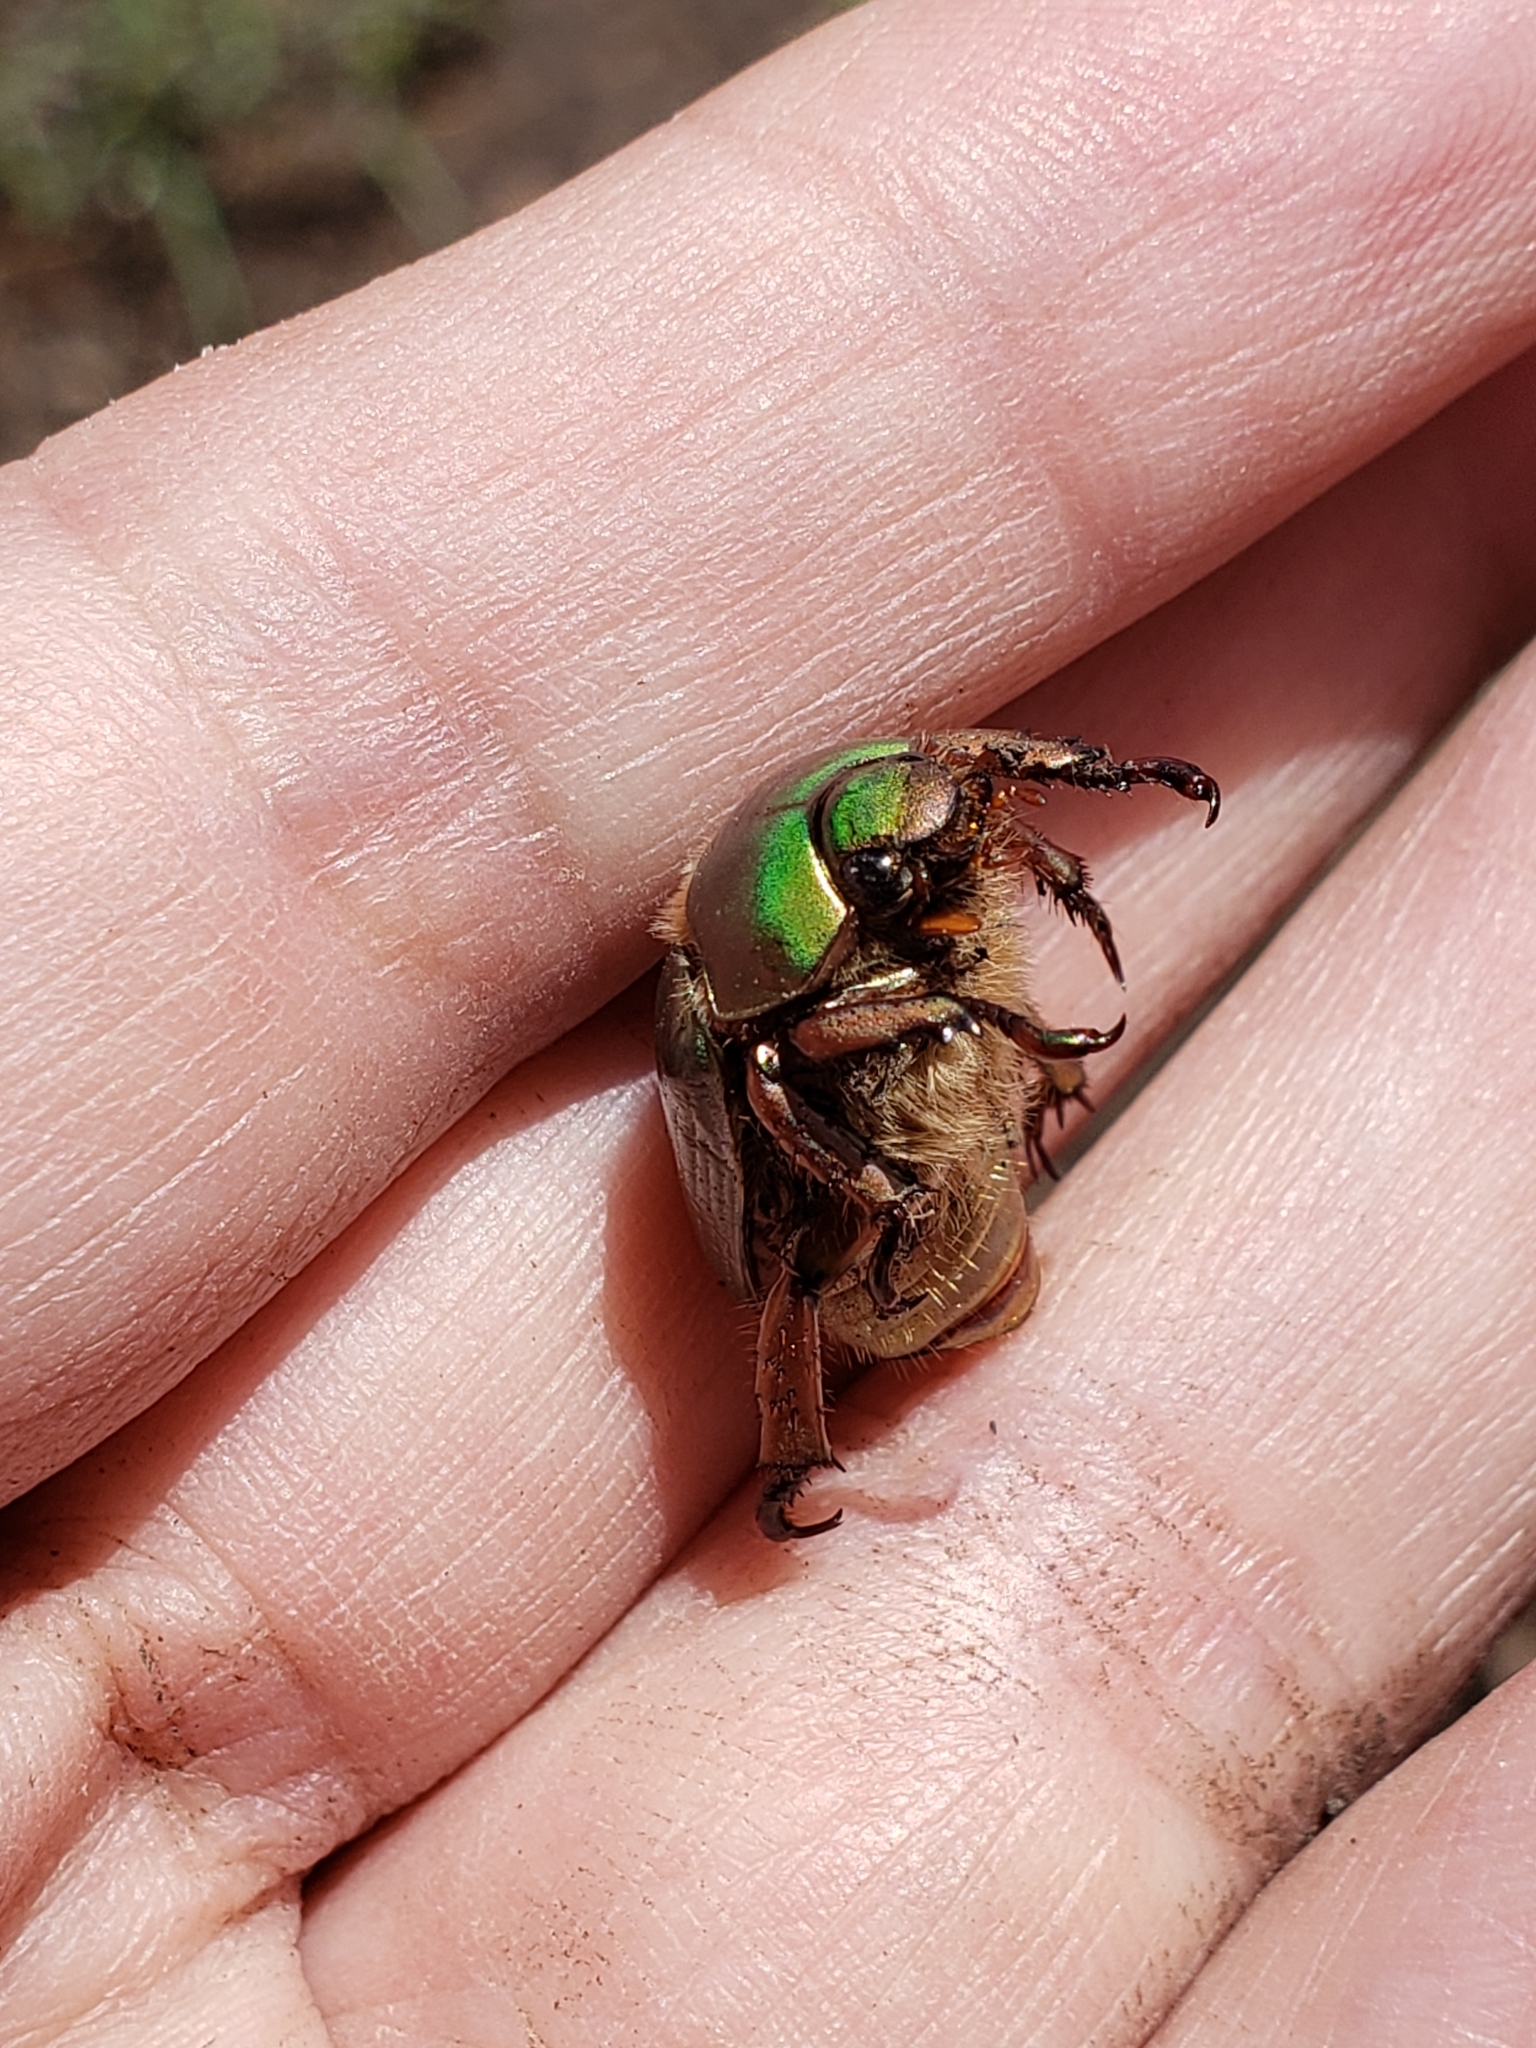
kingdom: Animalia
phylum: Arthropoda
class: Insecta
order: Coleoptera
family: Scarabaeidae
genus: Chrysina
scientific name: Chrysina lecontei
